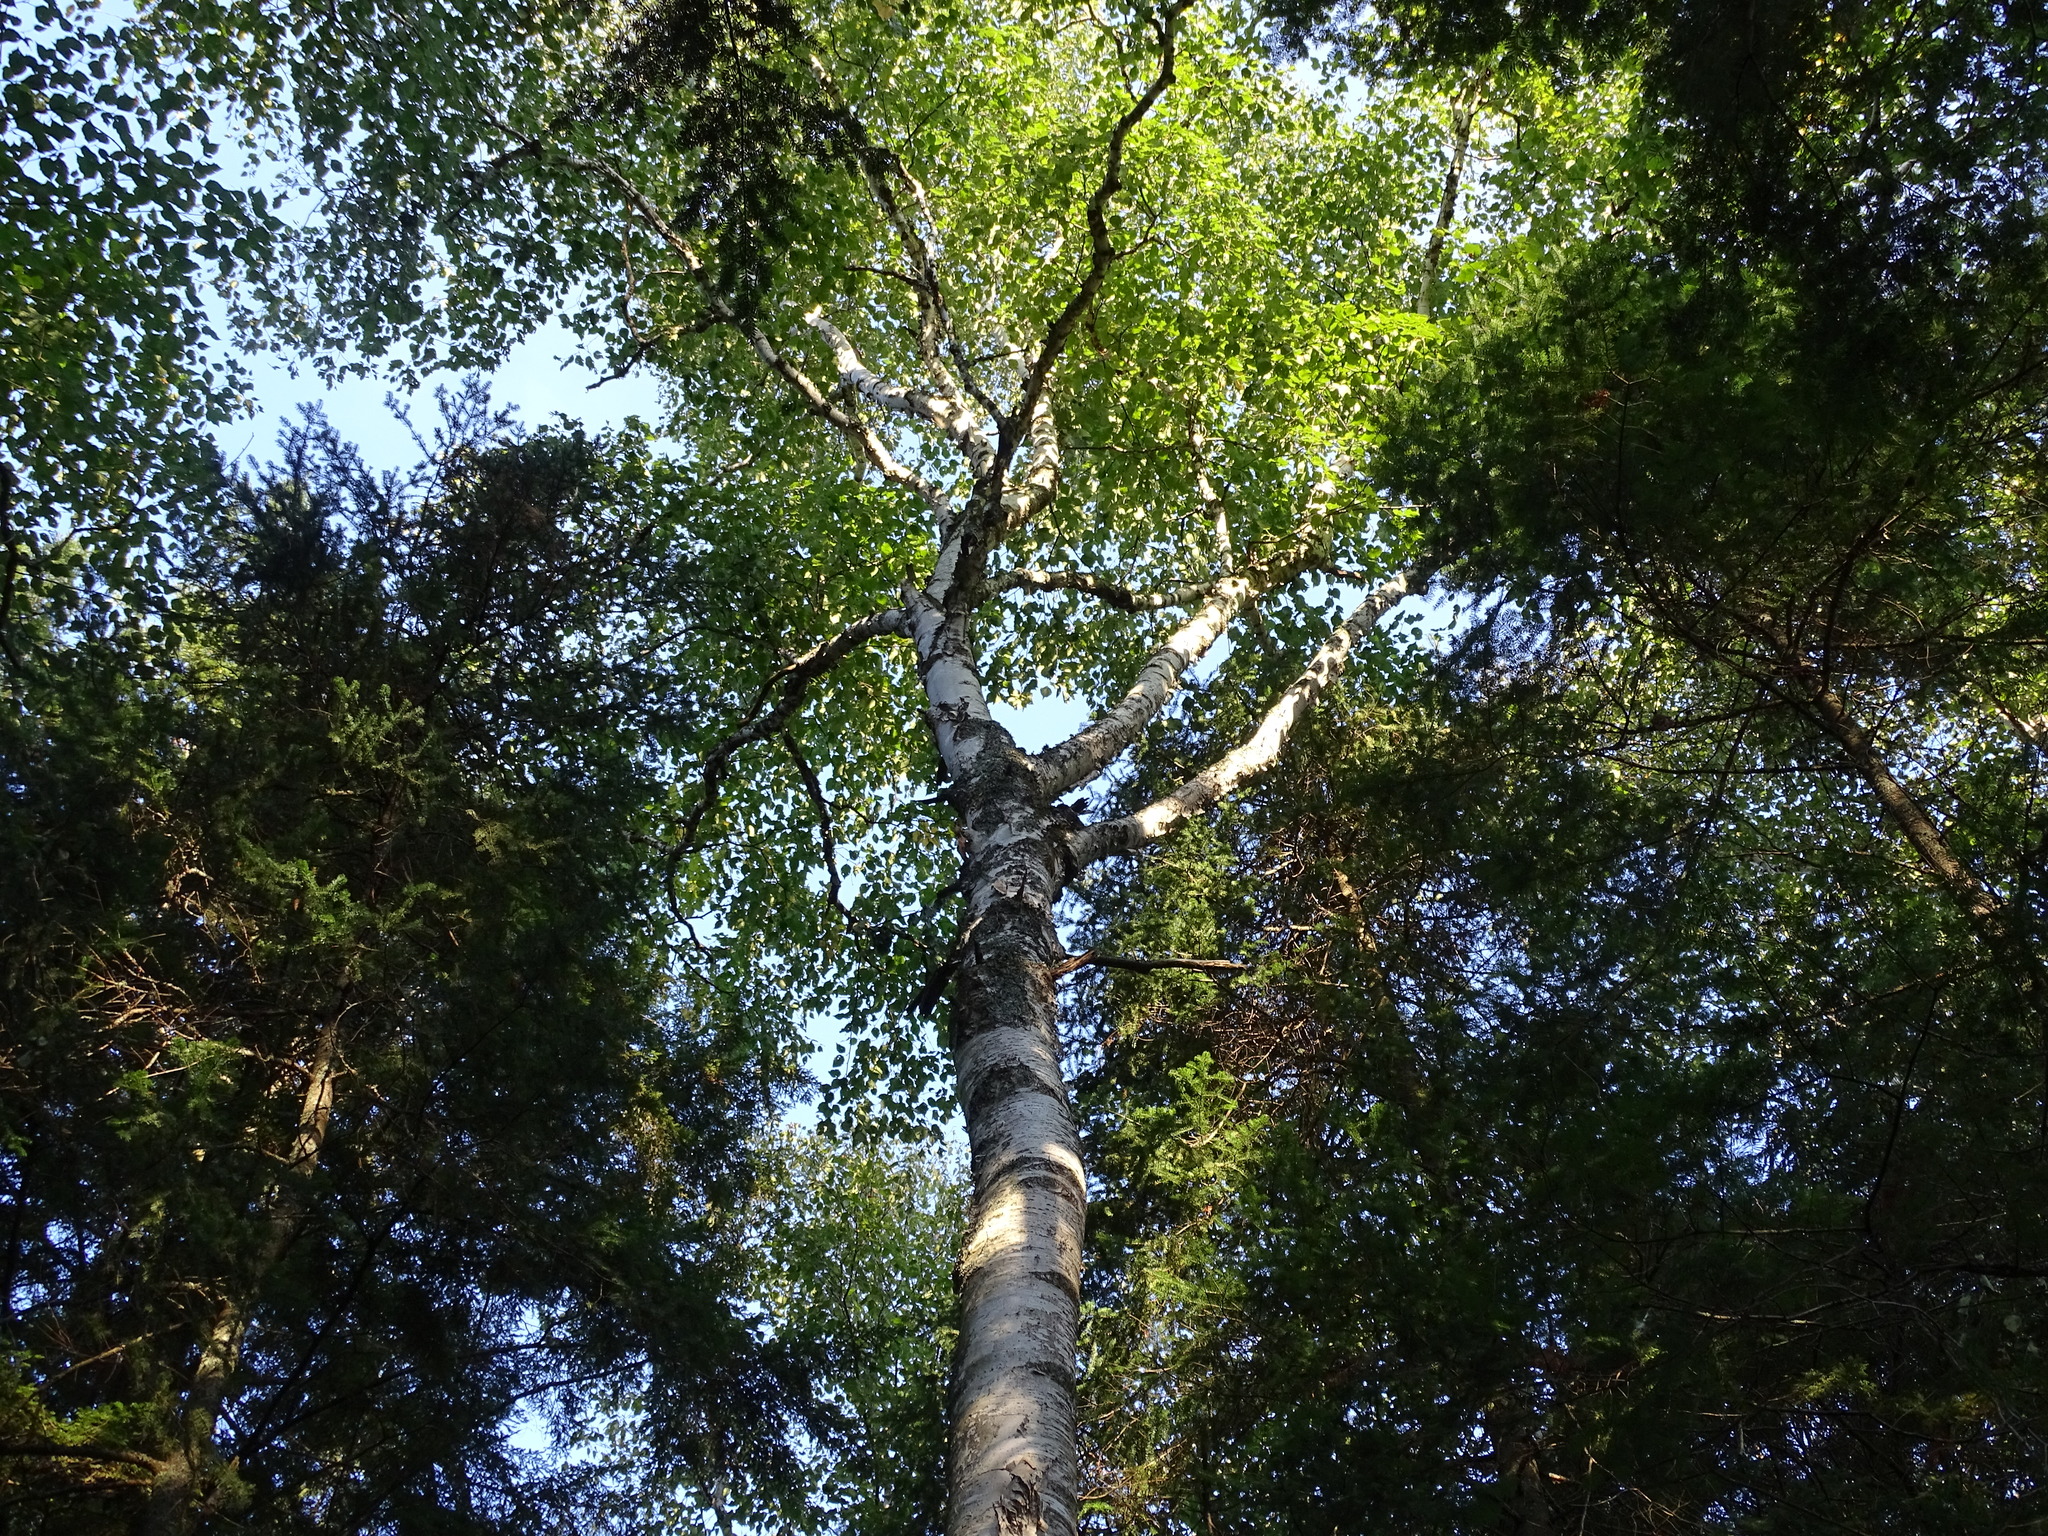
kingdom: Plantae
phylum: Tracheophyta
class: Magnoliopsida
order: Fagales
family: Betulaceae
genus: Betula
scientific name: Betula papyrifera
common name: Paper birch
